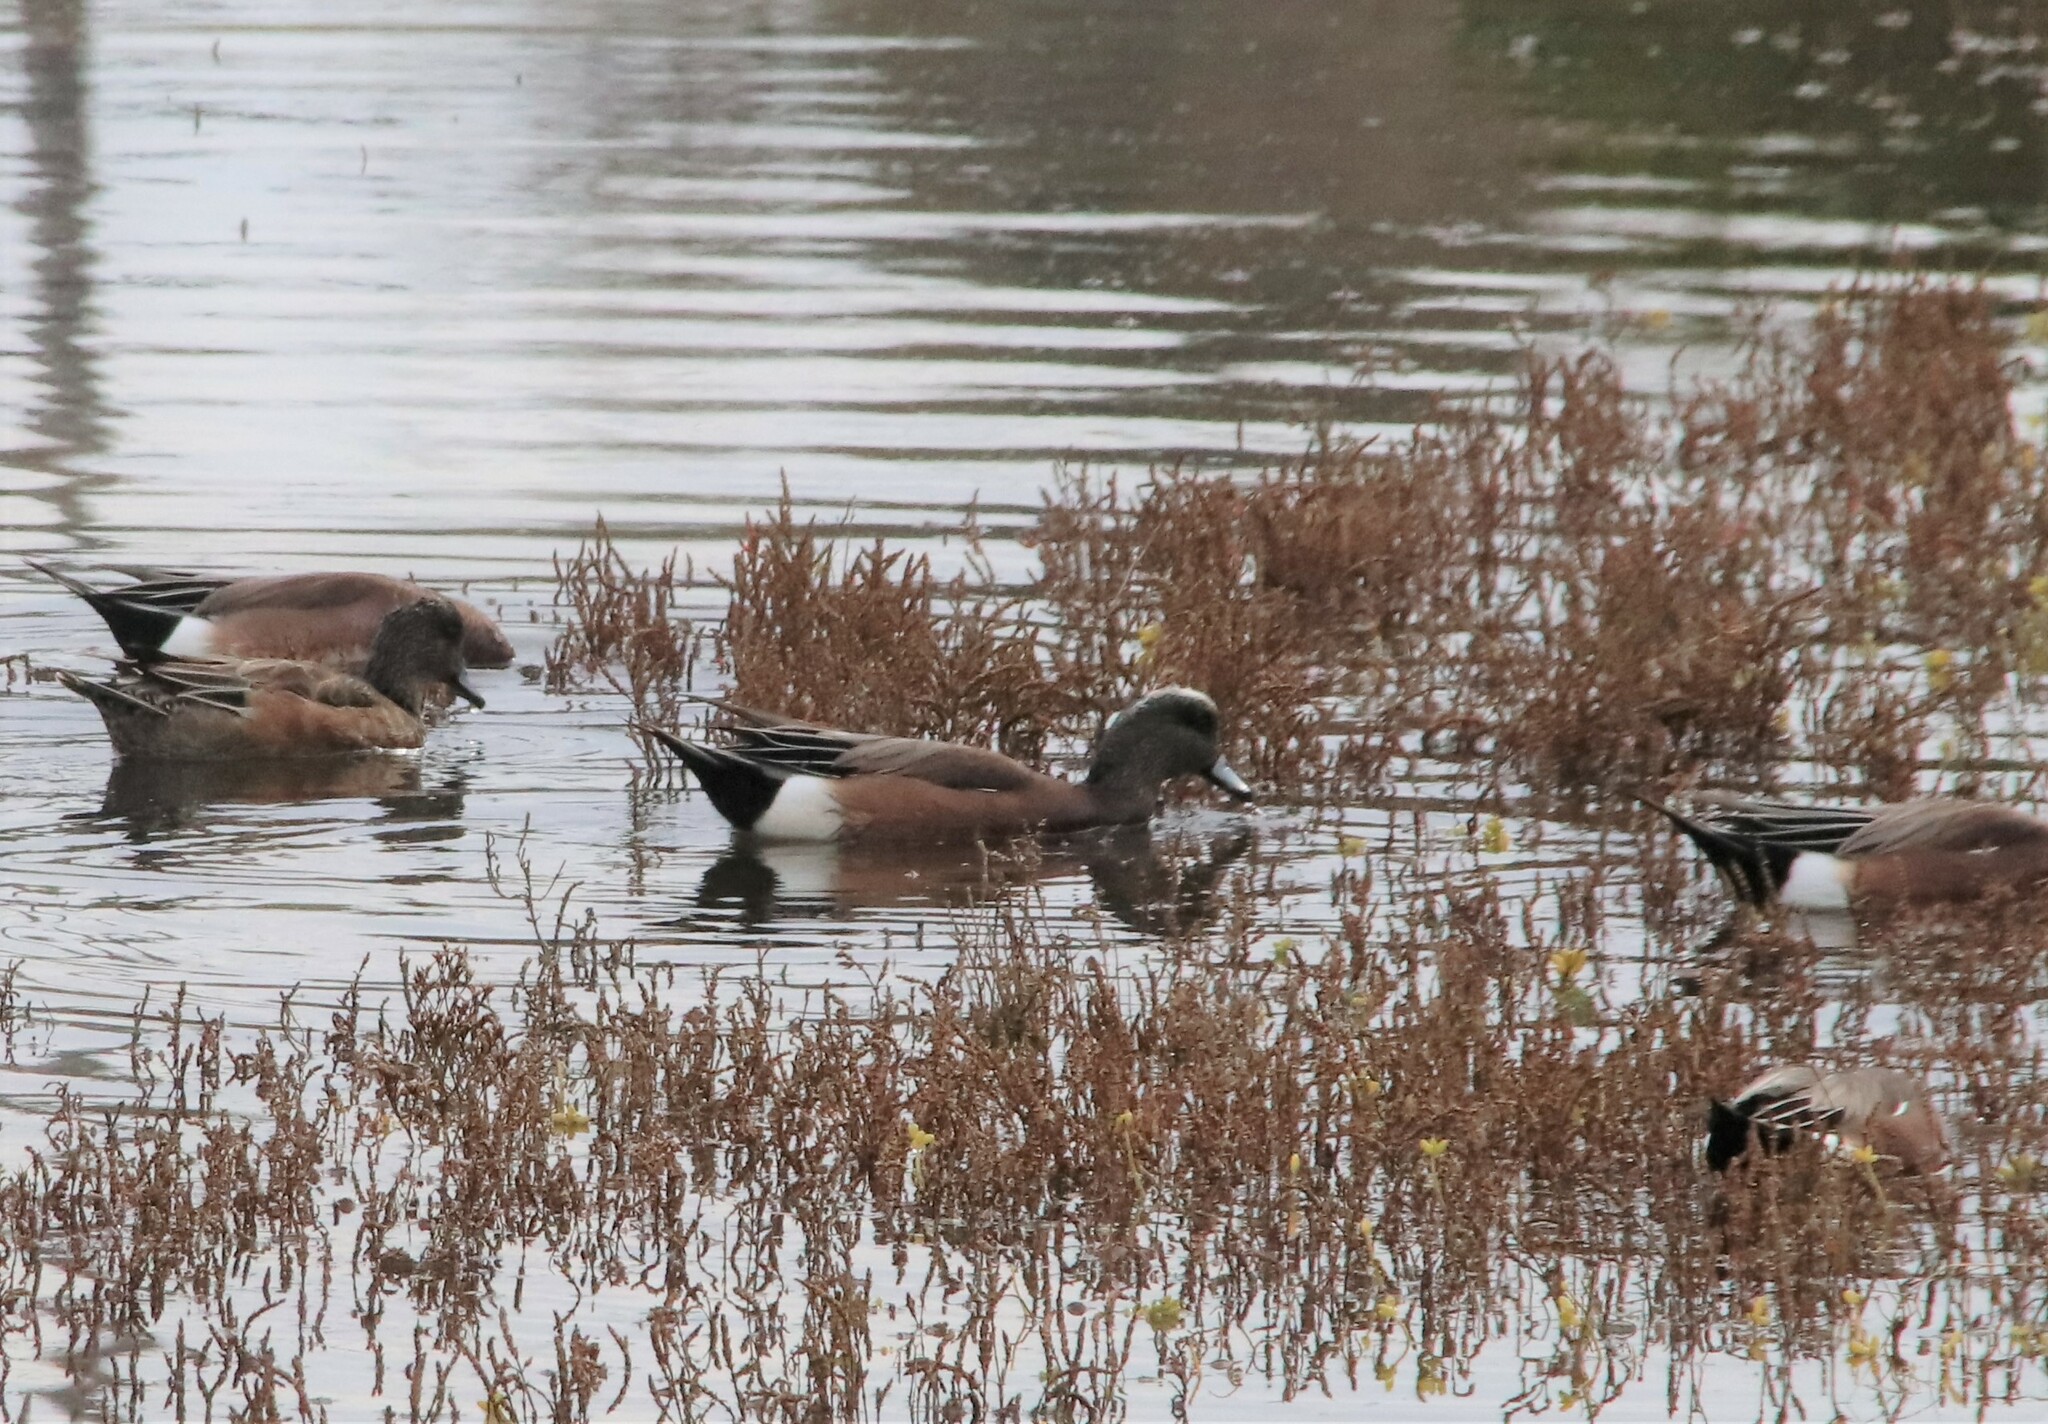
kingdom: Animalia
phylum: Chordata
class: Aves
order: Anseriformes
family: Anatidae
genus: Mareca
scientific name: Mareca americana
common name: American wigeon
